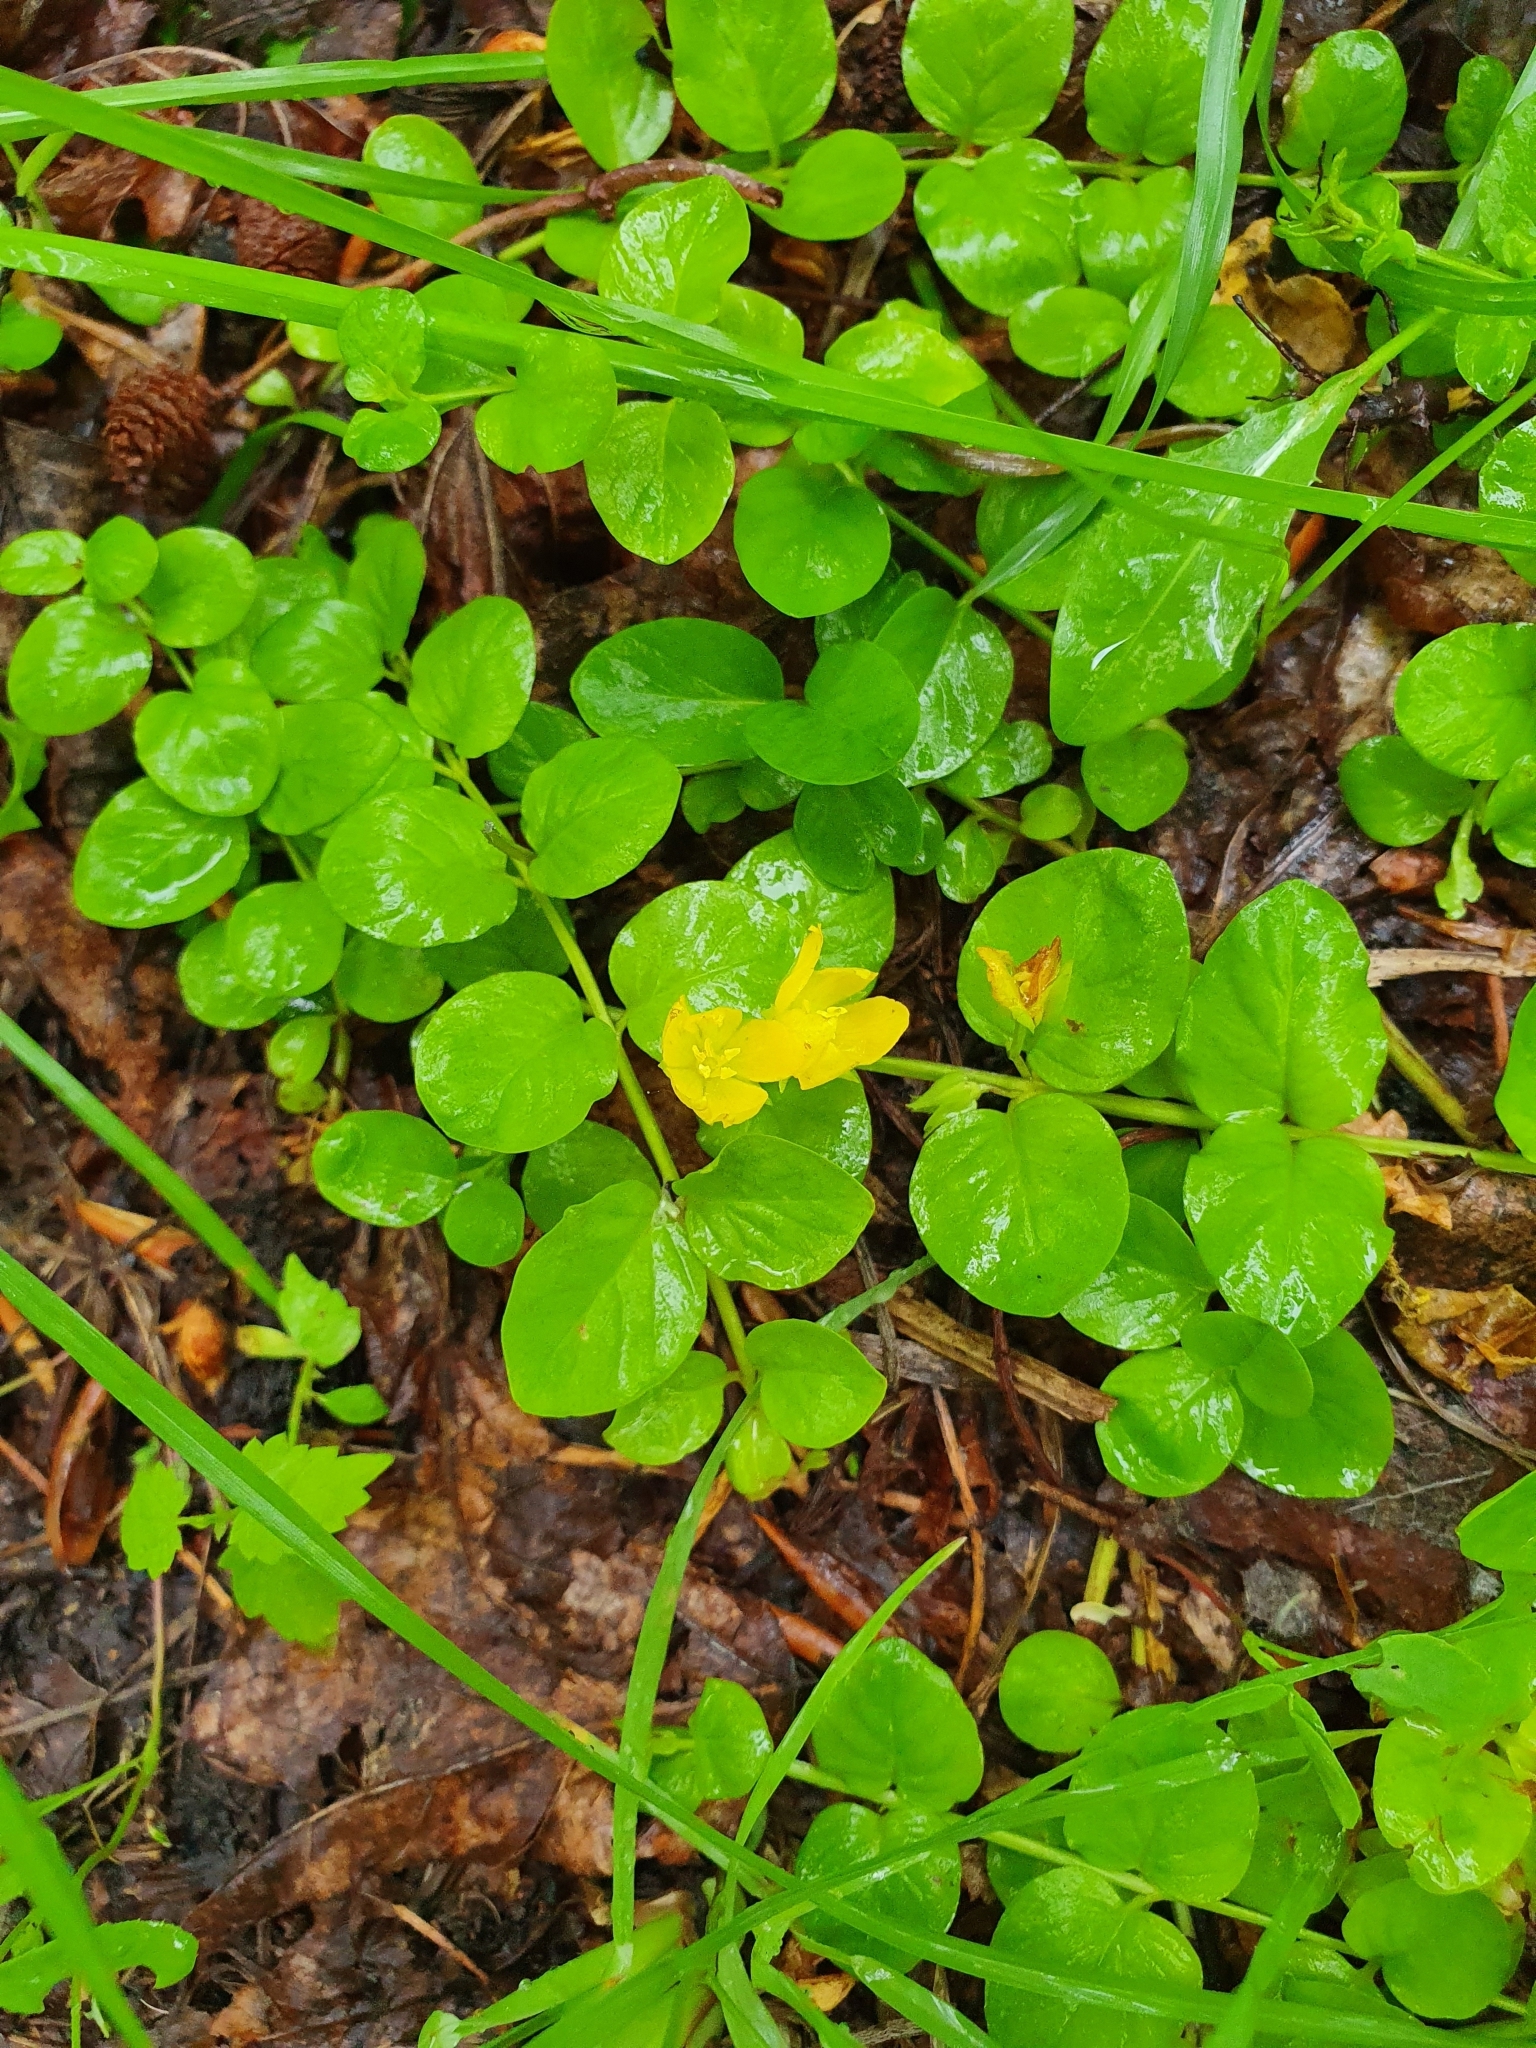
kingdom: Plantae
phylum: Tracheophyta
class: Magnoliopsida
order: Ericales
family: Primulaceae
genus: Lysimachia
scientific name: Lysimachia nummularia
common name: Moneywort
